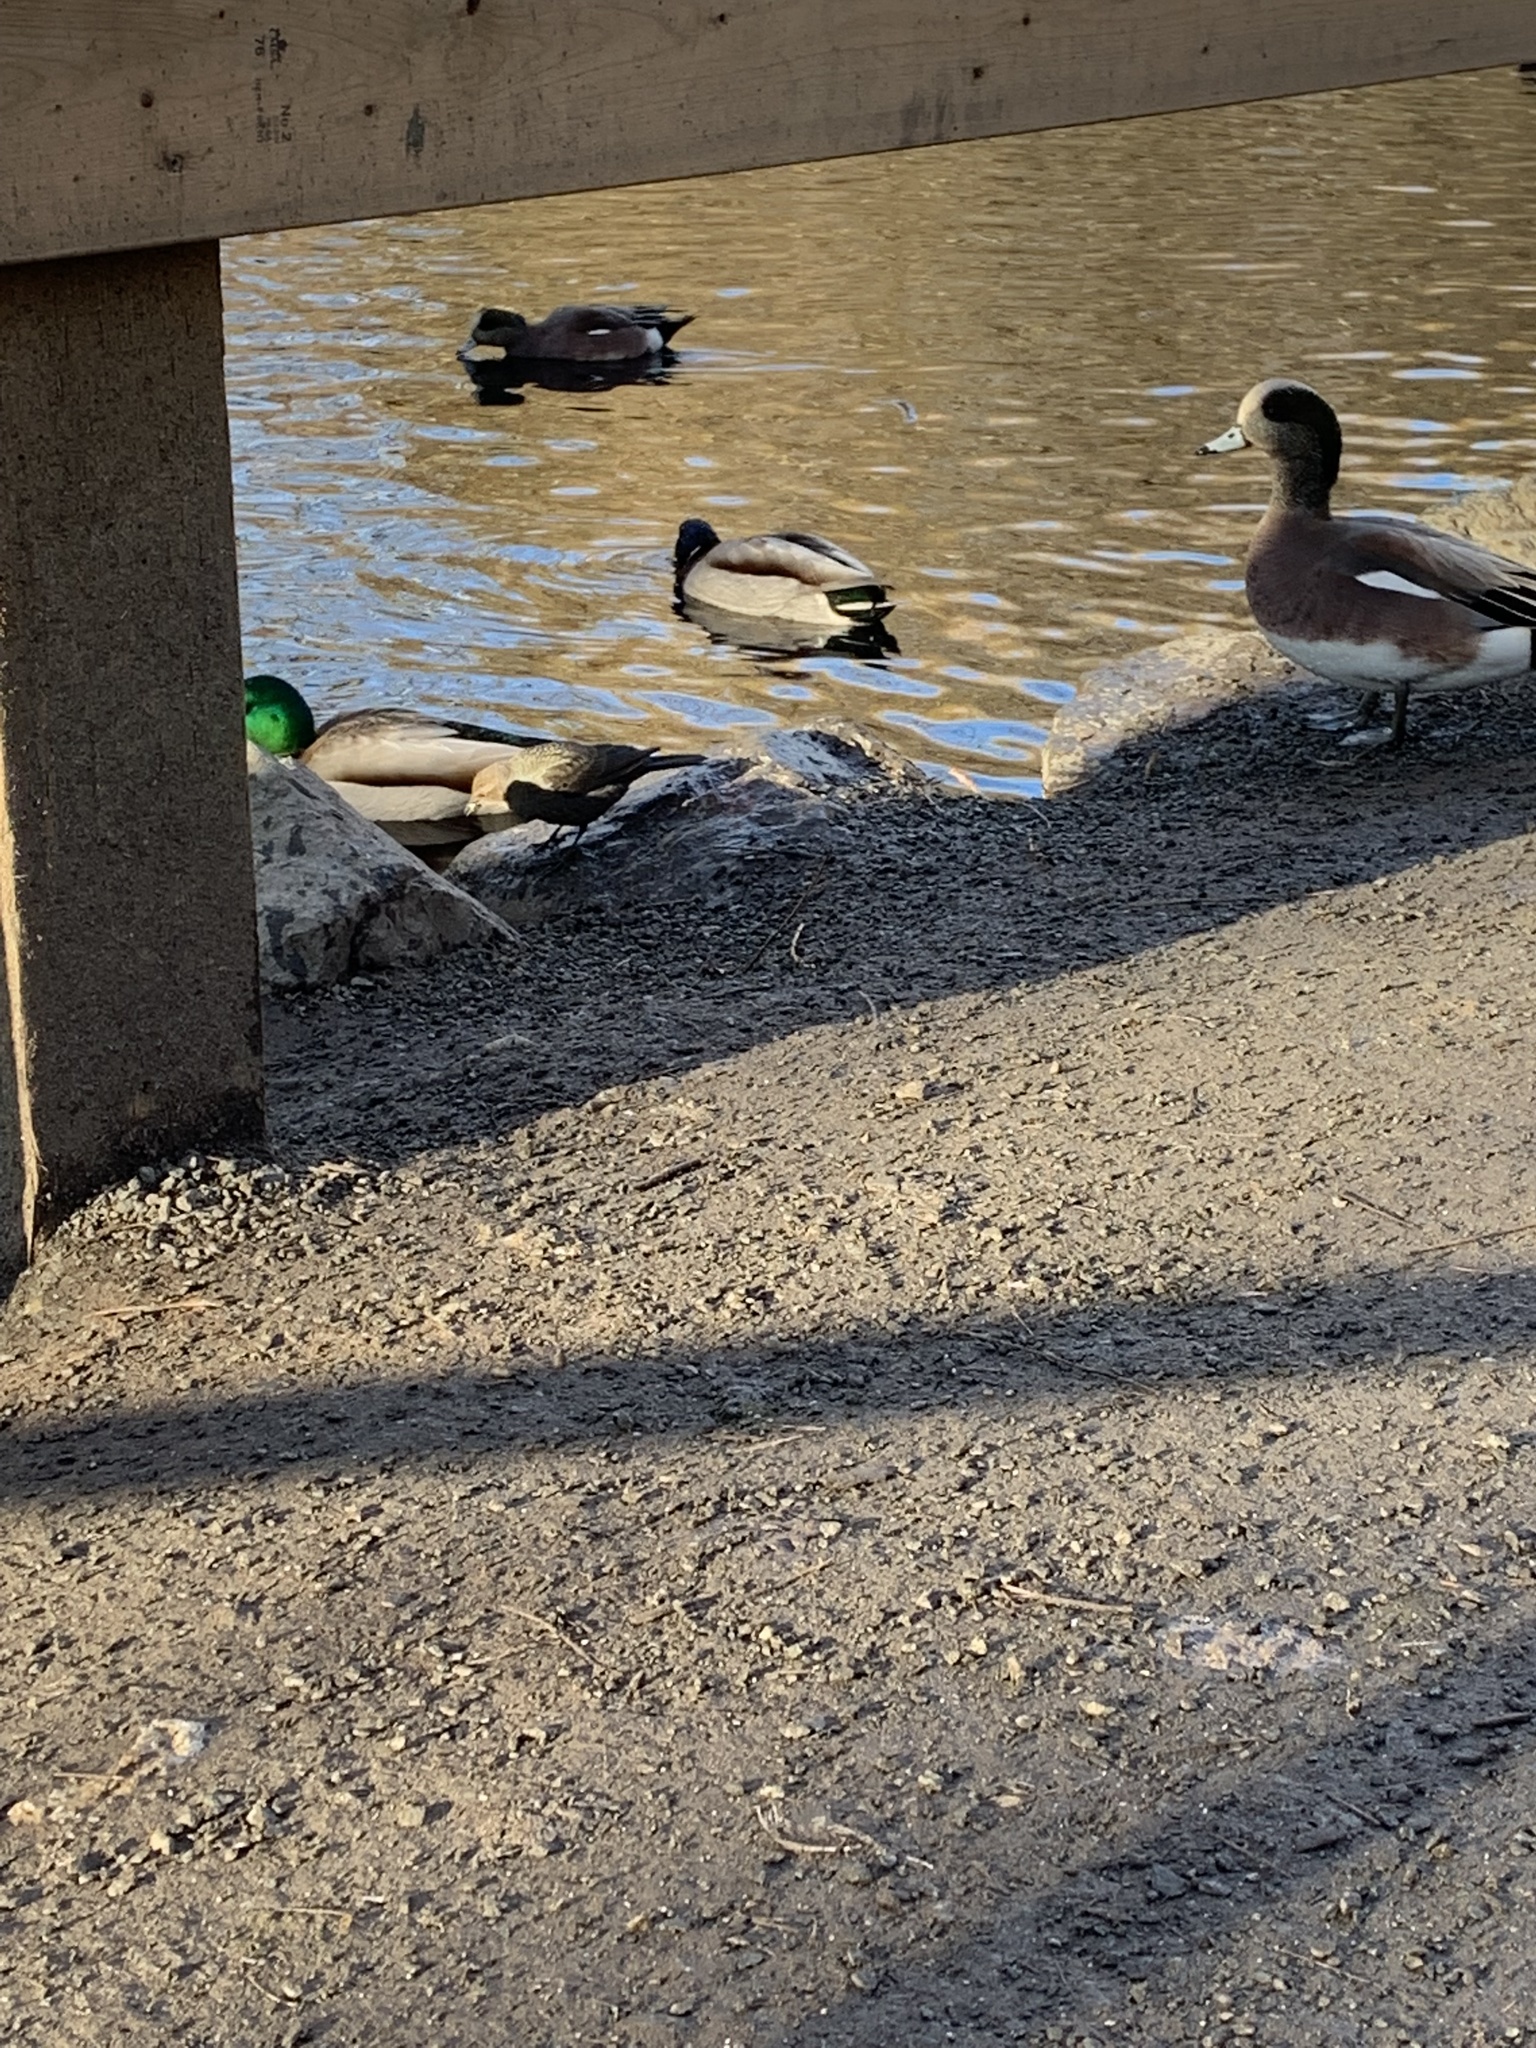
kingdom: Animalia
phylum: Chordata
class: Aves
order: Passeriformes
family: Icteridae
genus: Euphagus
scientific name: Euphagus cyanocephalus
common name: Brewer's blackbird
